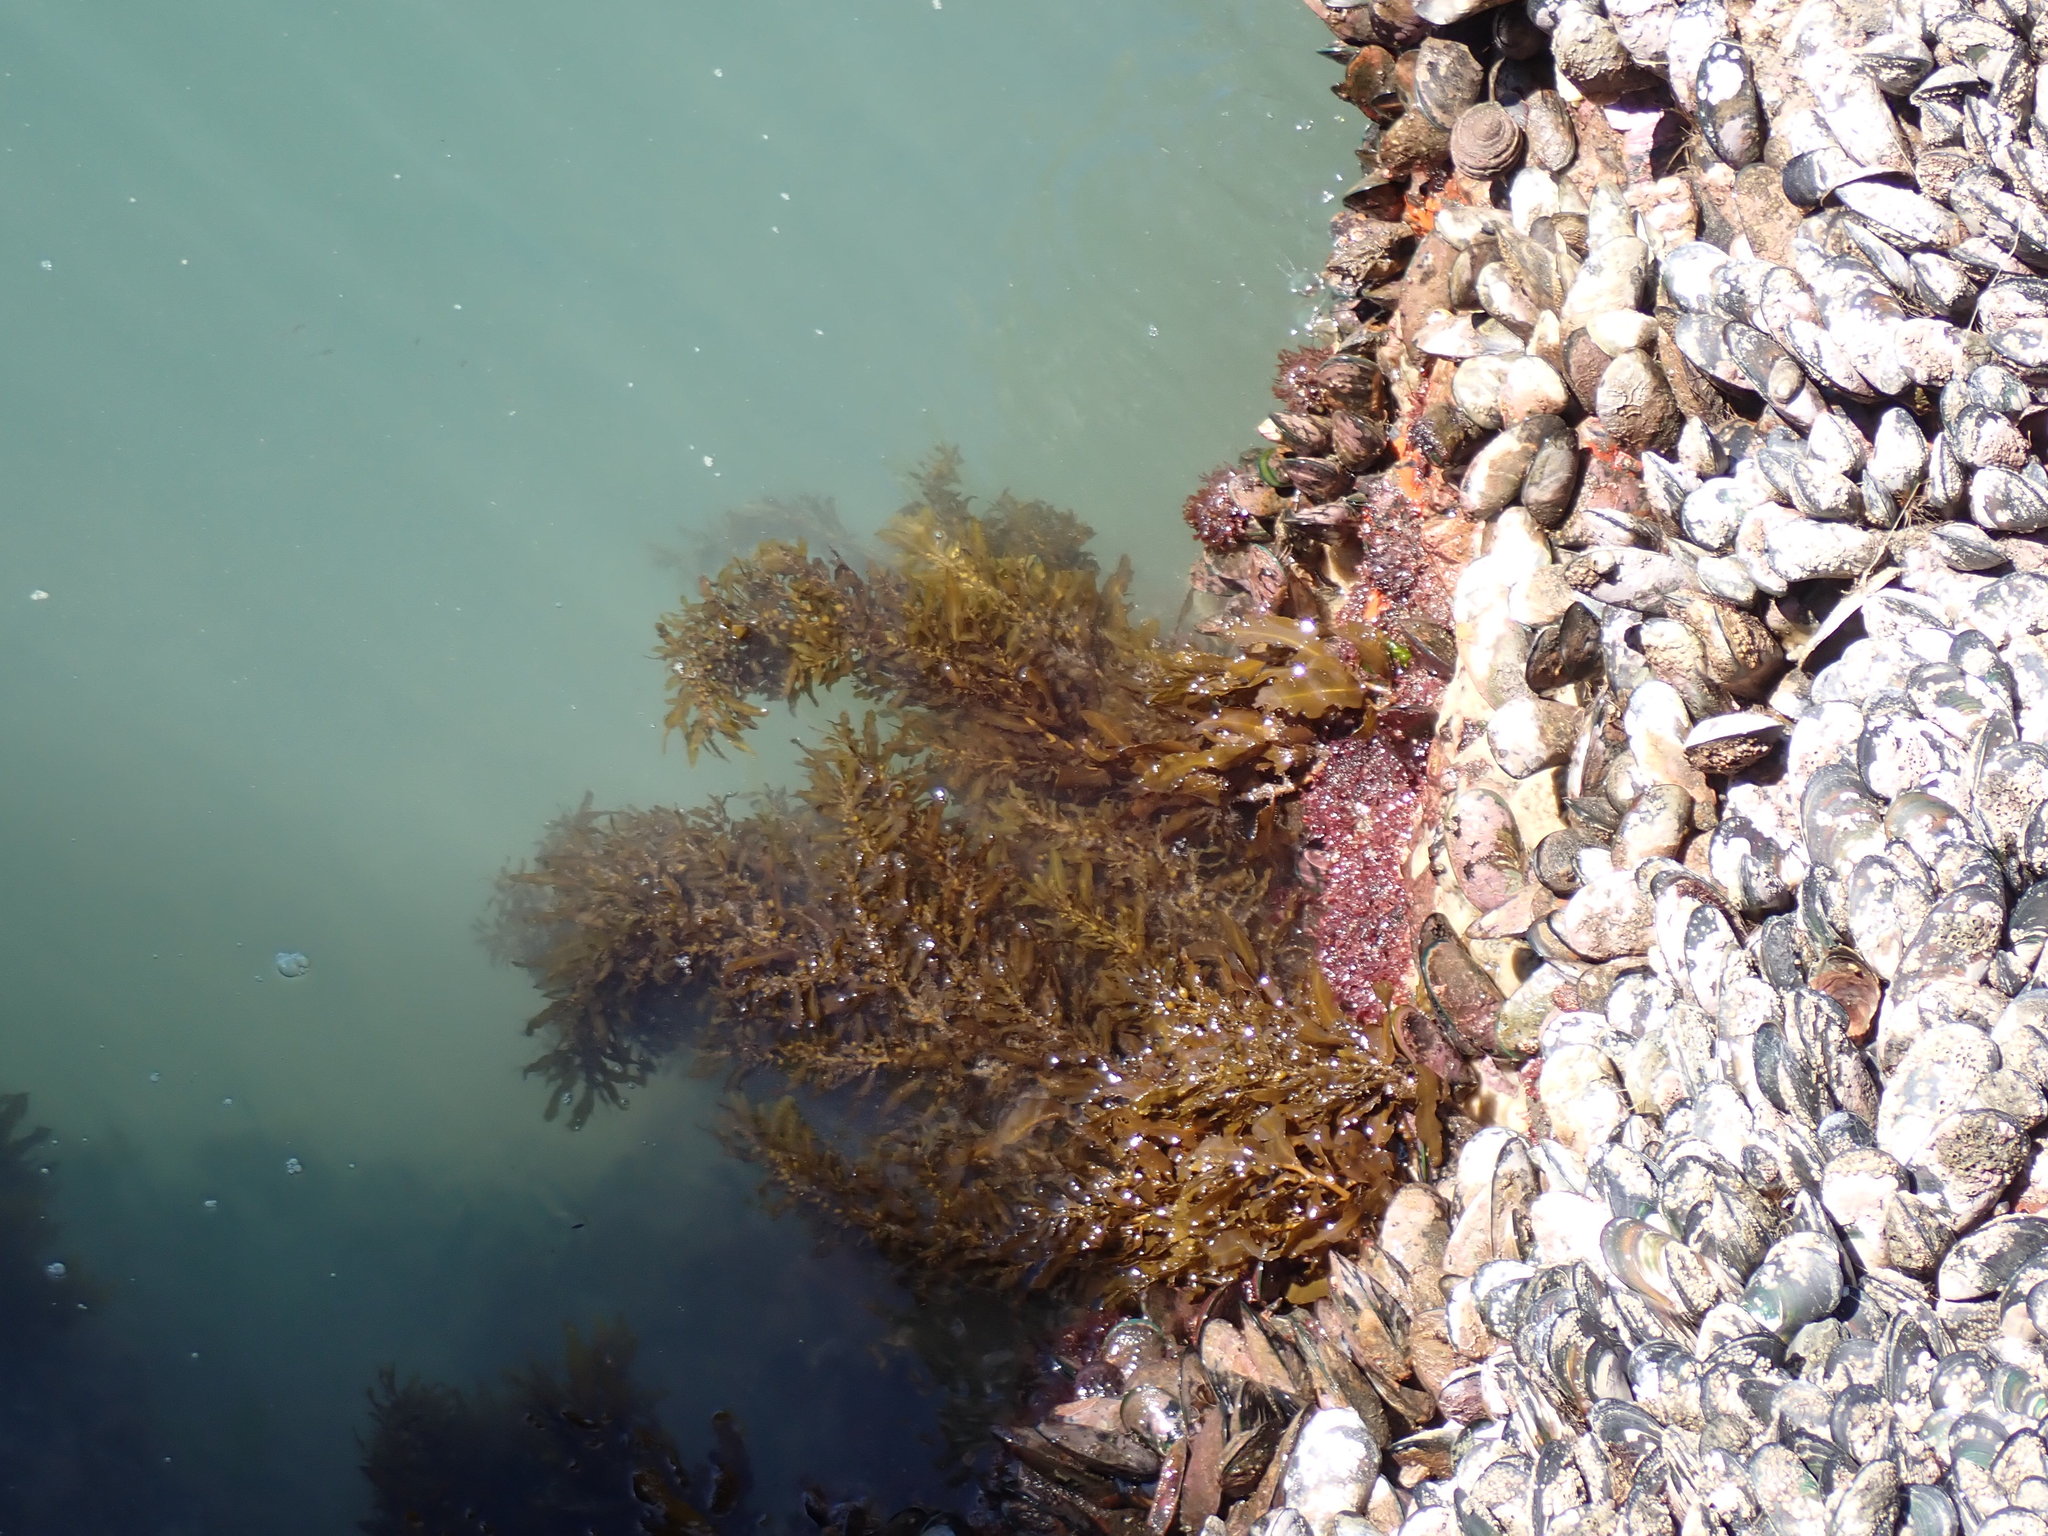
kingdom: Chromista
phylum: Ochrophyta
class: Phaeophyceae
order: Fucales
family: Sargassaceae
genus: Sargassum
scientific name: Sargassum sinclairii
